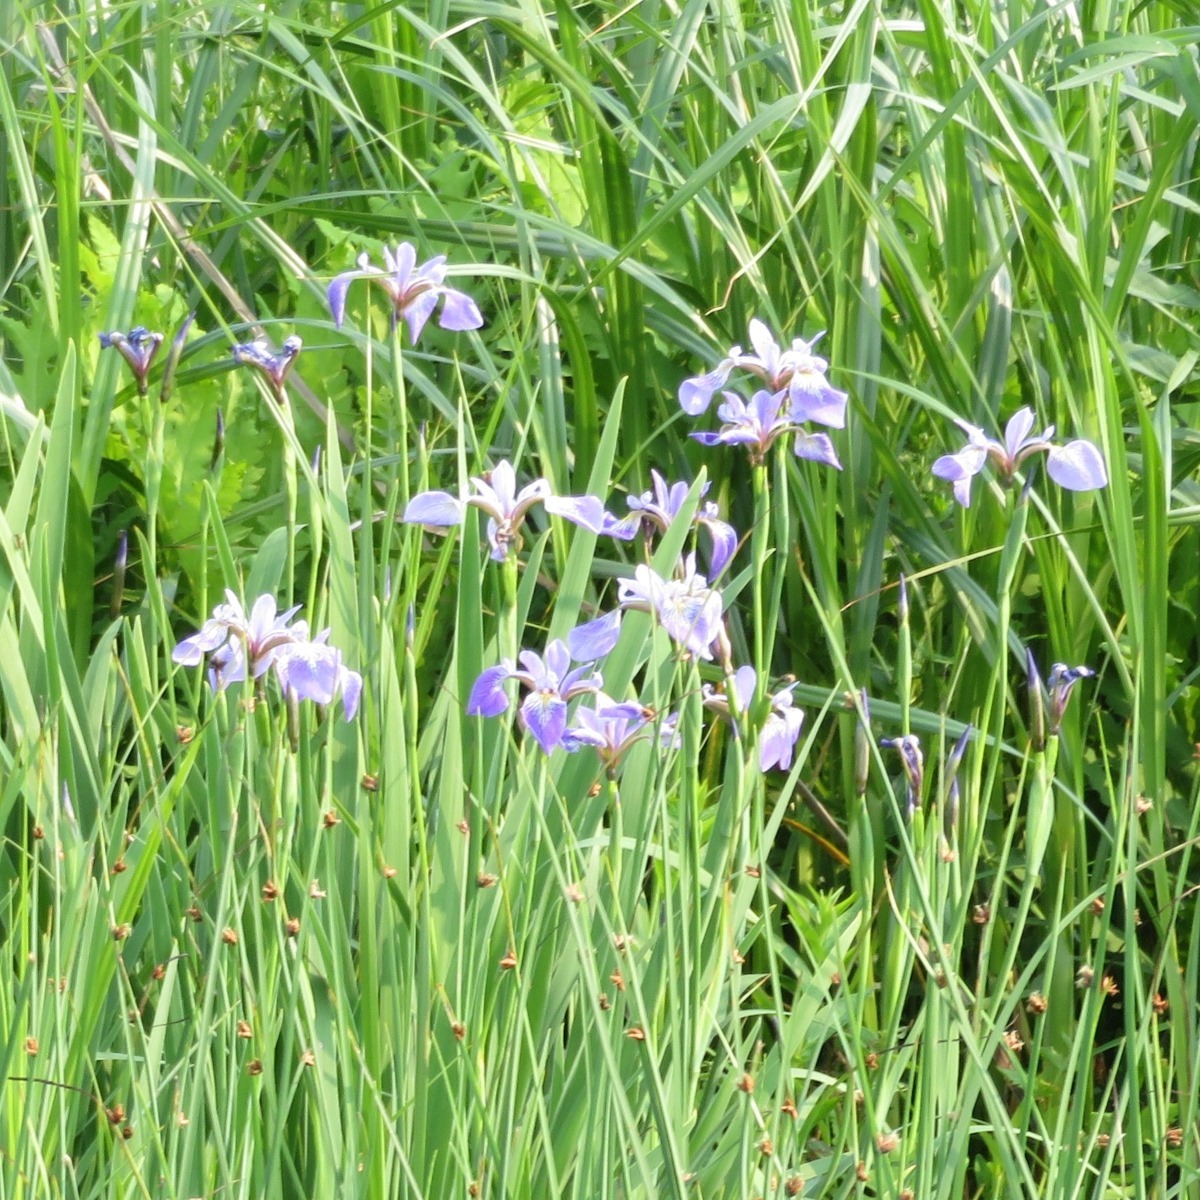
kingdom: Plantae
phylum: Tracheophyta
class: Liliopsida
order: Asparagales
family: Iridaceae
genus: Iris
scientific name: Iris versicolor
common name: Purple iris
